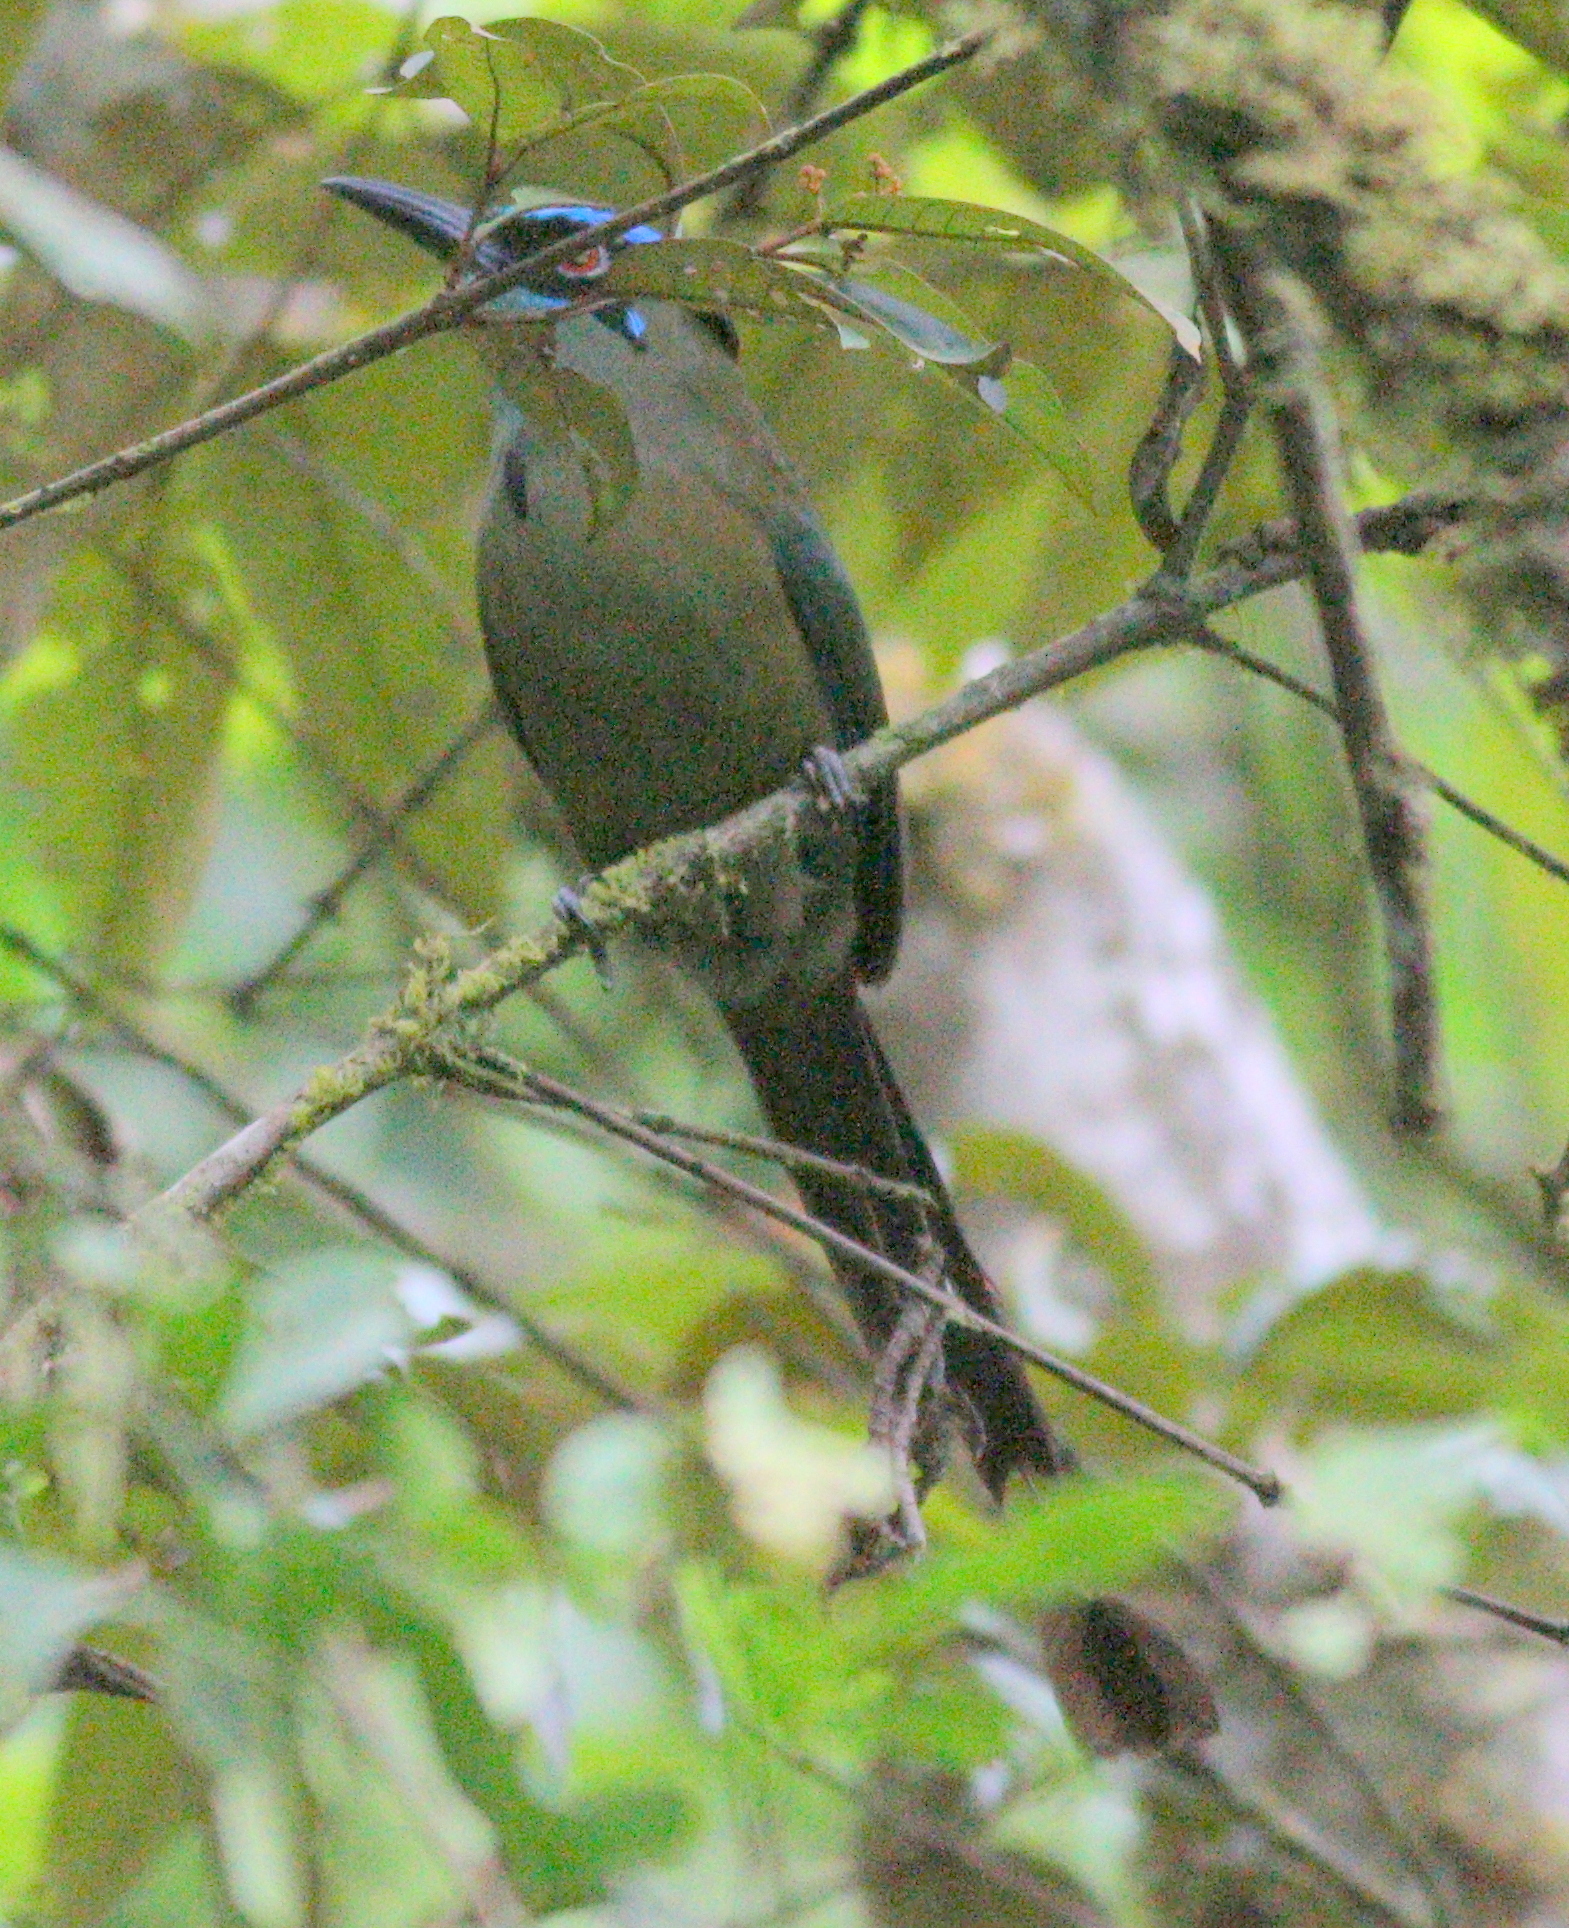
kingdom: Animalia
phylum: Chordata
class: Aves
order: Coraciiformes
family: Momotidae
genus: Momotus
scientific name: Momotus aequatorialis
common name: Andean motmot
